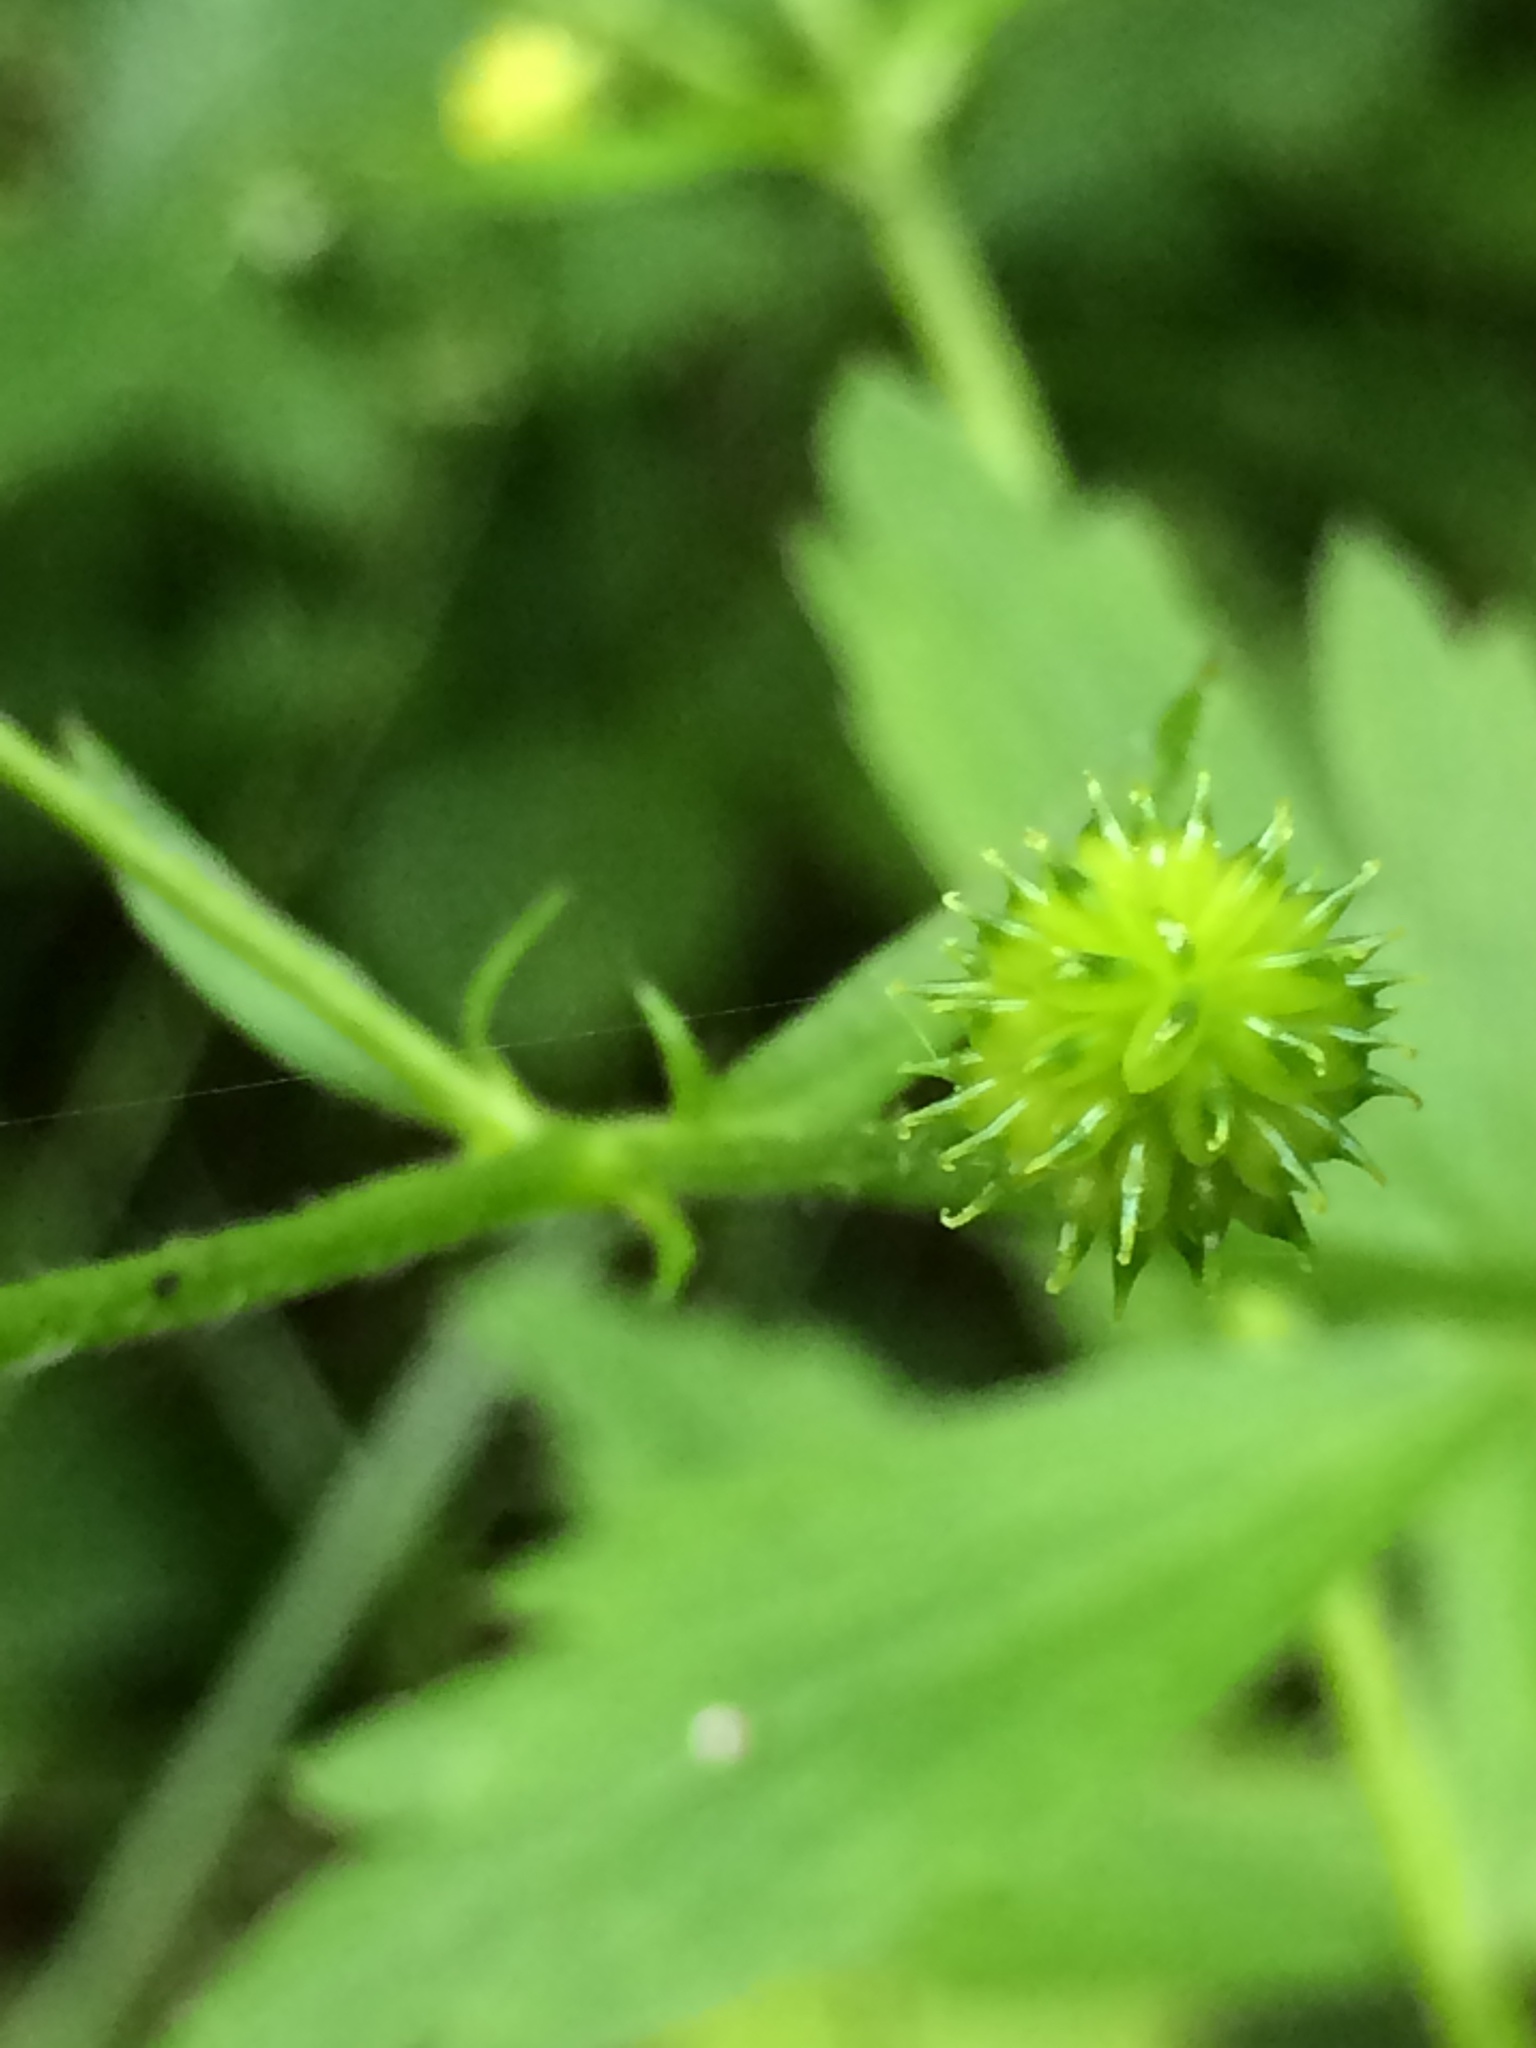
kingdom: Plantae
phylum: Tracheophyta
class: Magnoliopsida
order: Ranunculales
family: Ranunculaceae
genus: Ranunculus
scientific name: Ranunculus recurvatus
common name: Blisterwort
